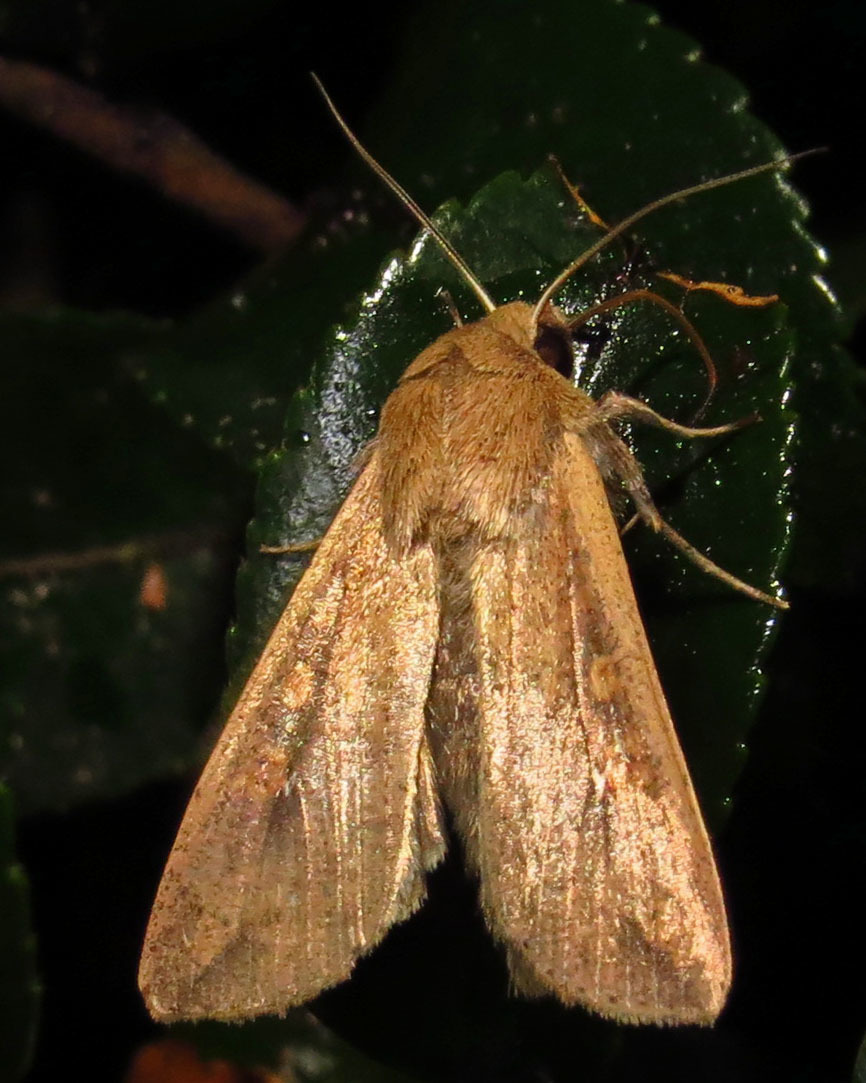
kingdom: Animalia
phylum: Arthropoda
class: Insecta
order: Lepidoptera
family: Noctuidae
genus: Mythimna
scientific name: Mythimna unipuncta
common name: White-speck
